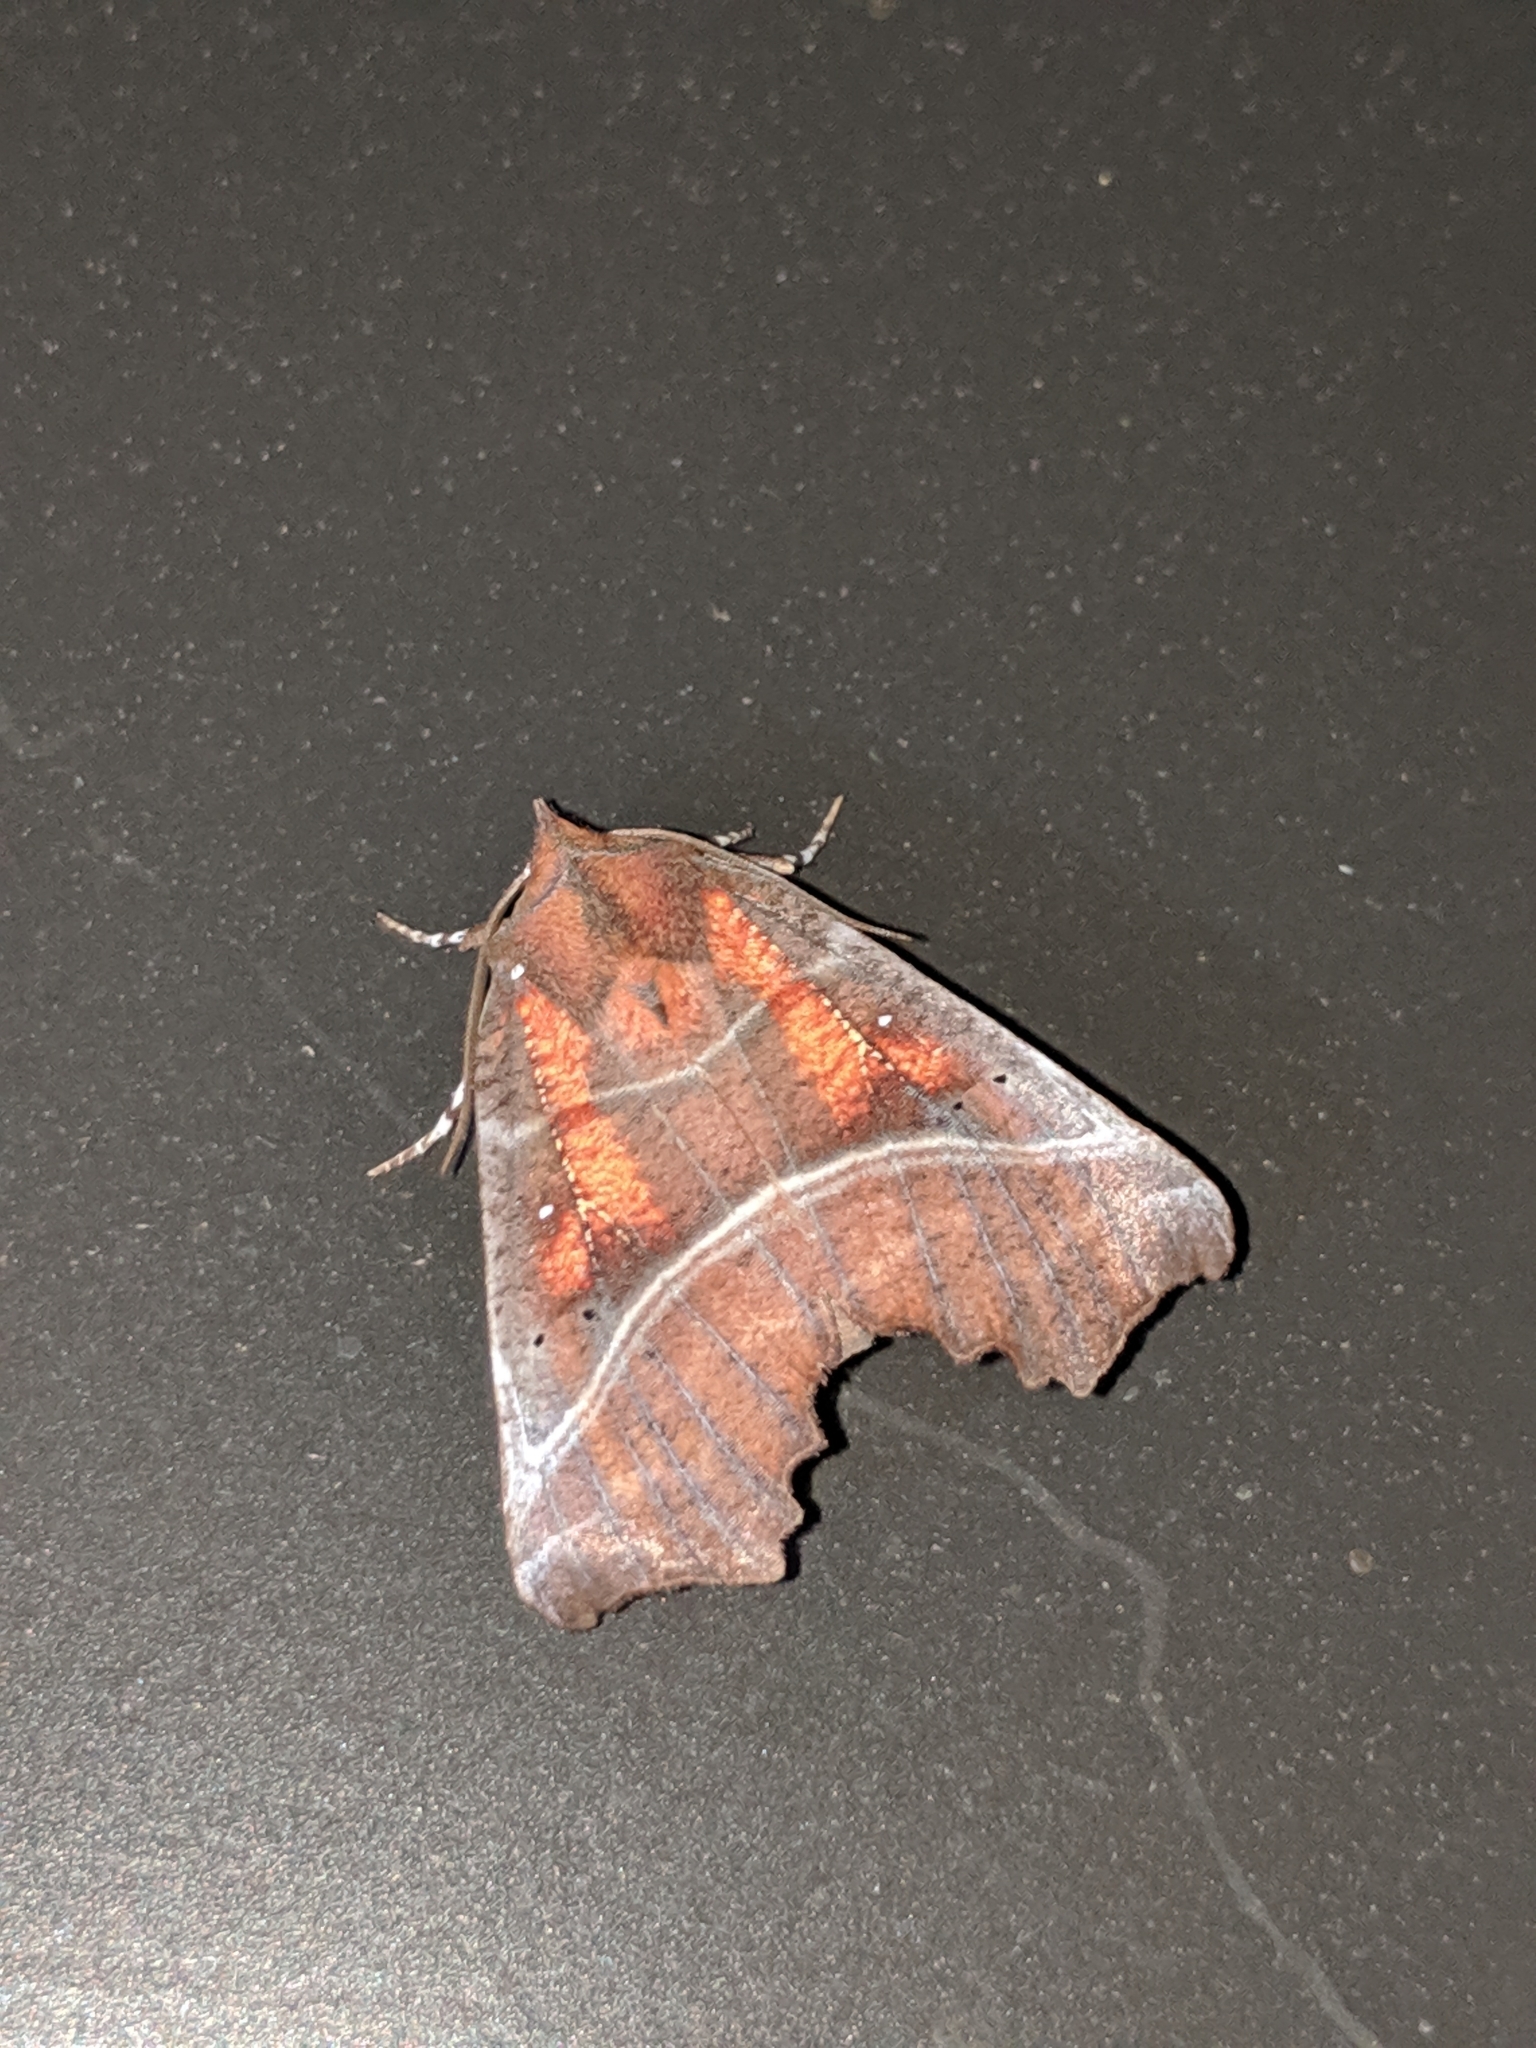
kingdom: Animalia
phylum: Arthropoda
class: Insecta
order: Lepidoptera
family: Erebidae
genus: Scoliopteryx
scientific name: Scoliopteryx libatrix
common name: Herald
